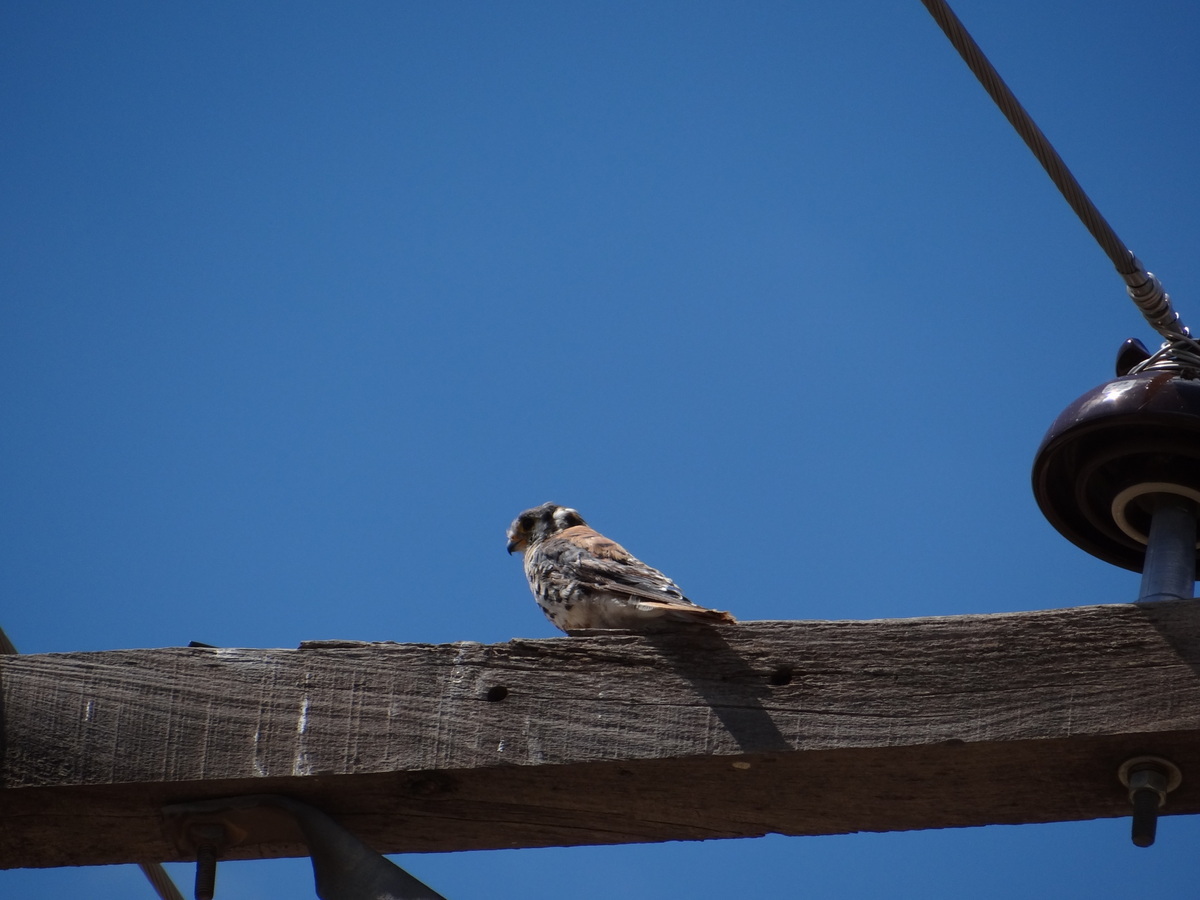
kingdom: Animalia
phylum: Chordata
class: Aves
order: Falconiformes
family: Falconidae
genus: Falco
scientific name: Falco sparverius
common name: American kestrel
